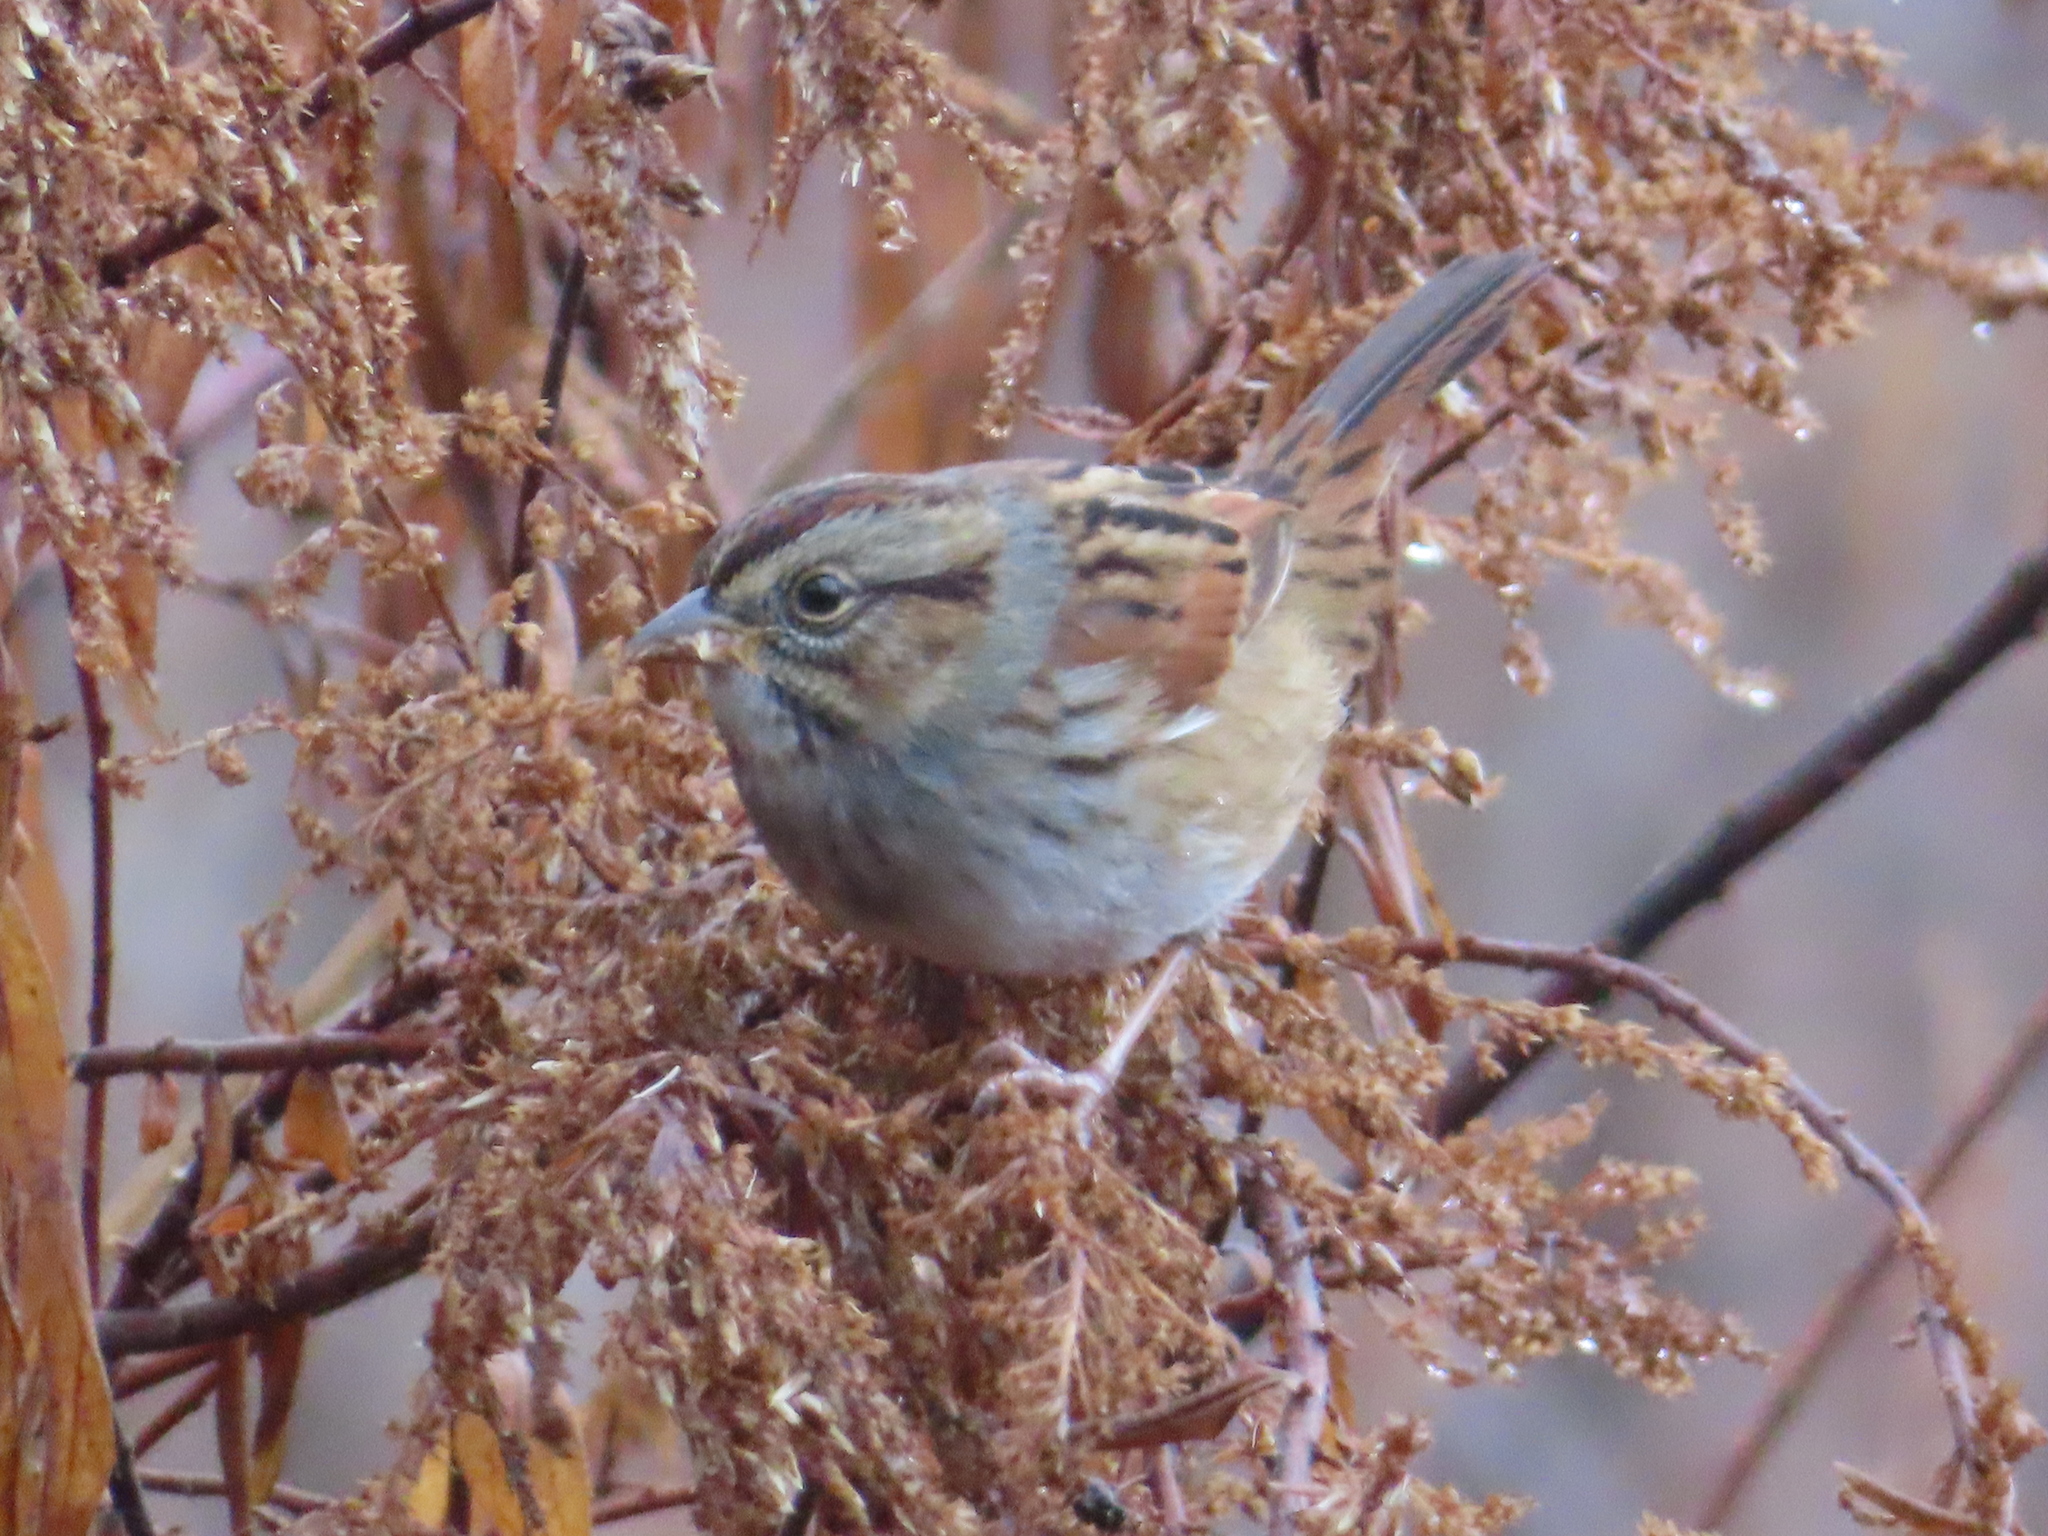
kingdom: Animalia
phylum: Chordata
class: Aves
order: Passeriformes
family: Passerellidae
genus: Melospiza
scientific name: Melospiza georgiana
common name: Swamp sparrow
